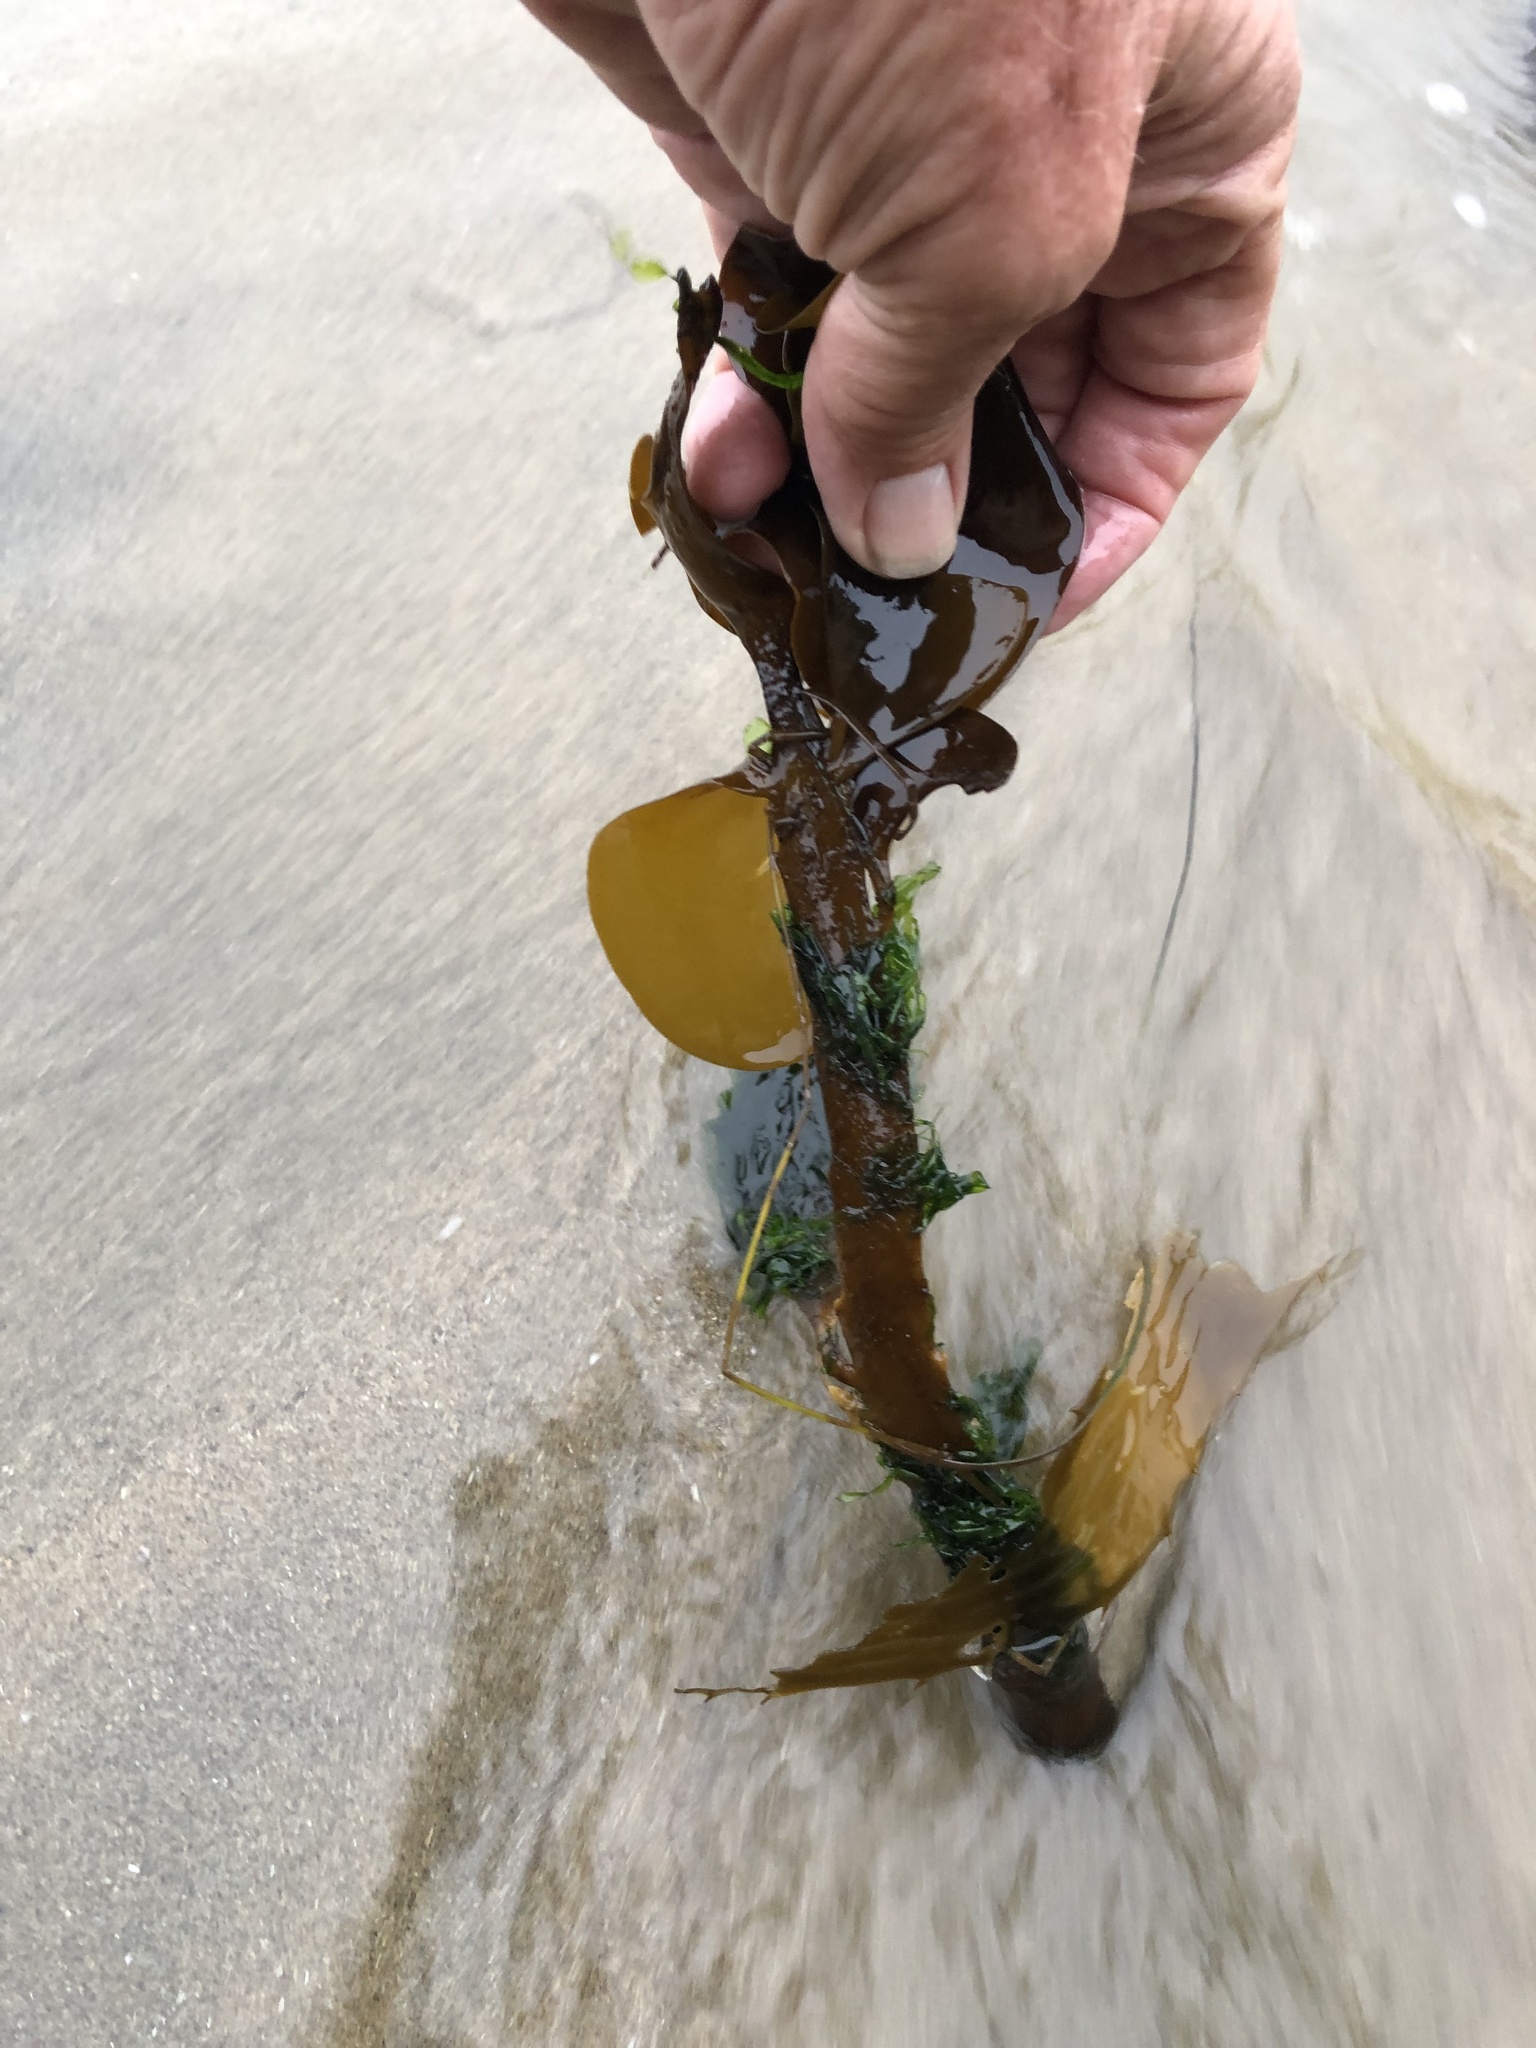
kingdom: Chromista
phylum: Ochrophyta
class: Phaeophyceae
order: Laminariales
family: Alariaceae
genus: Pterygophora
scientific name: Pterygophora californica
